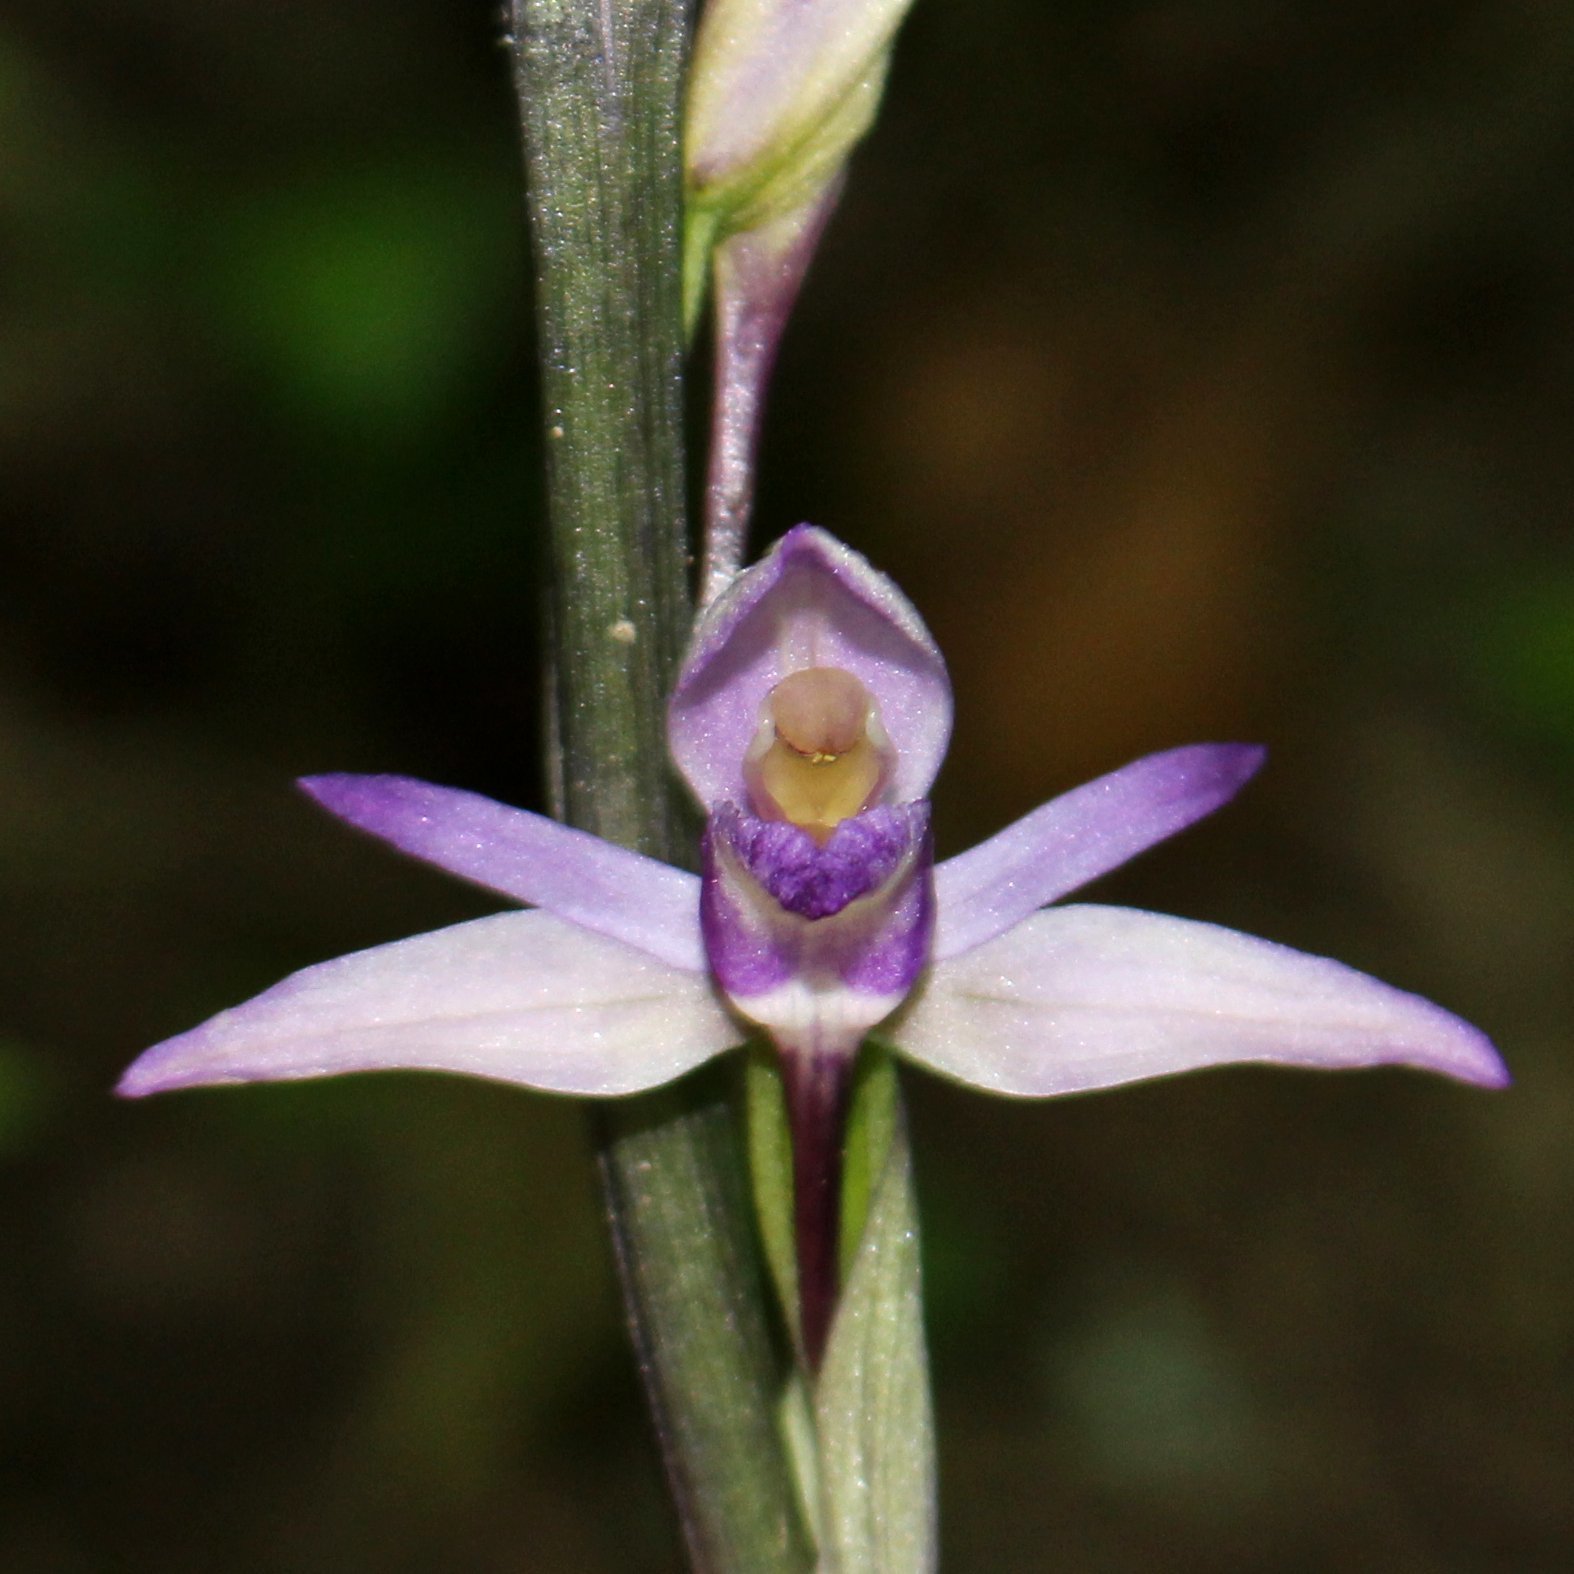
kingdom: Plantae
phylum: Tracheophyta
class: Liliopsida
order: Asparagales
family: Orchidaceae
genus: Limodorum
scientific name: Limodorum abortivum
